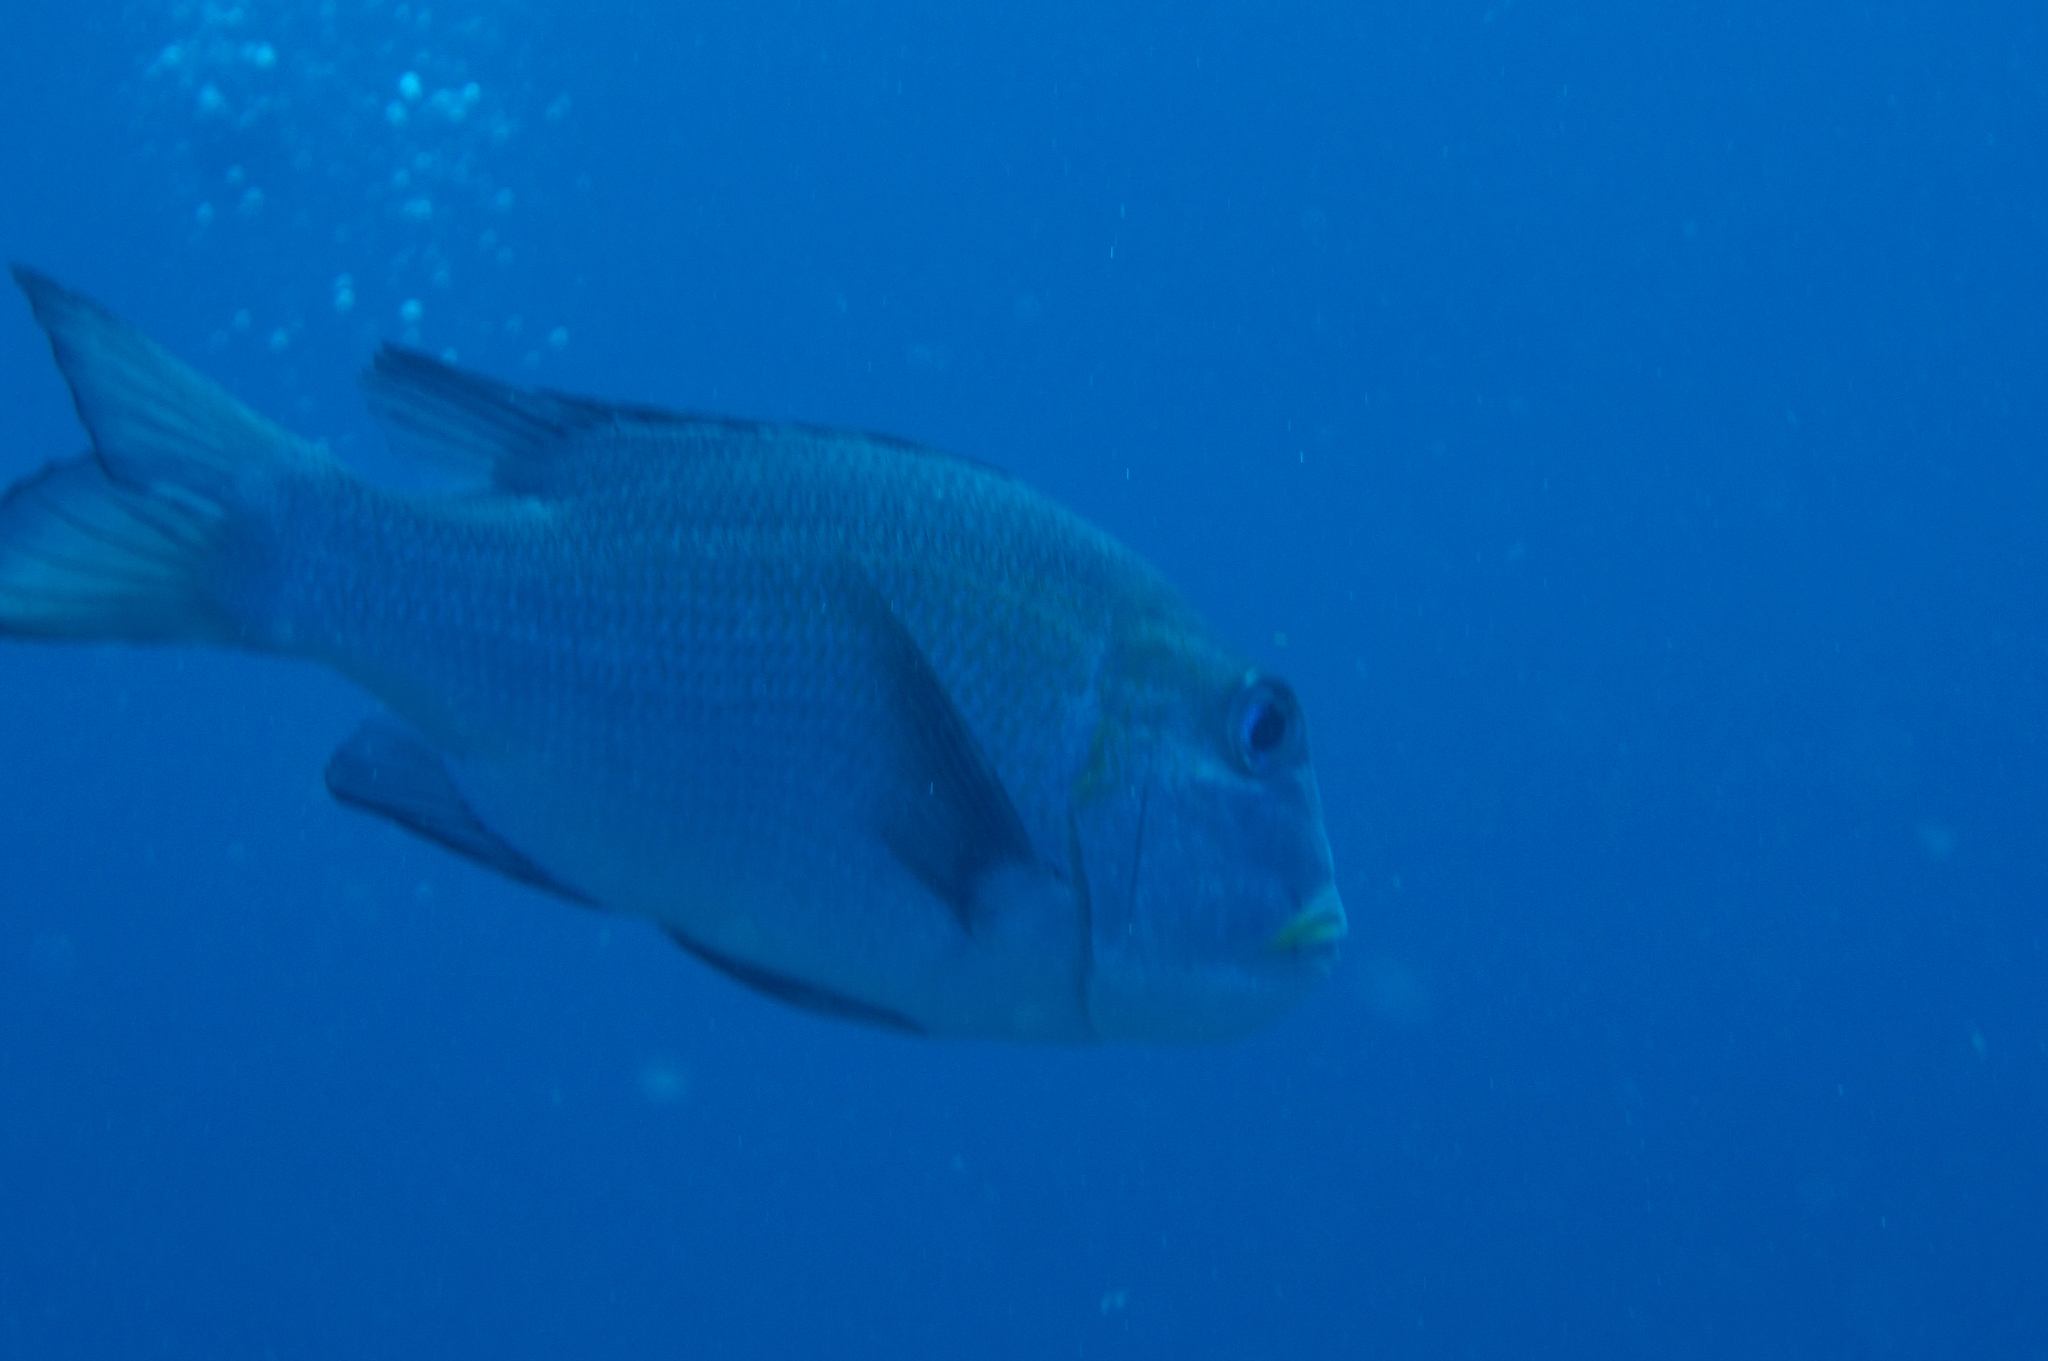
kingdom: Animalia
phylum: Chordata
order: Perciformes
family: Lethrinidae
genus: Monotaxis
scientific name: Monotaxis grandoculis
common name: Bigeye emperor
